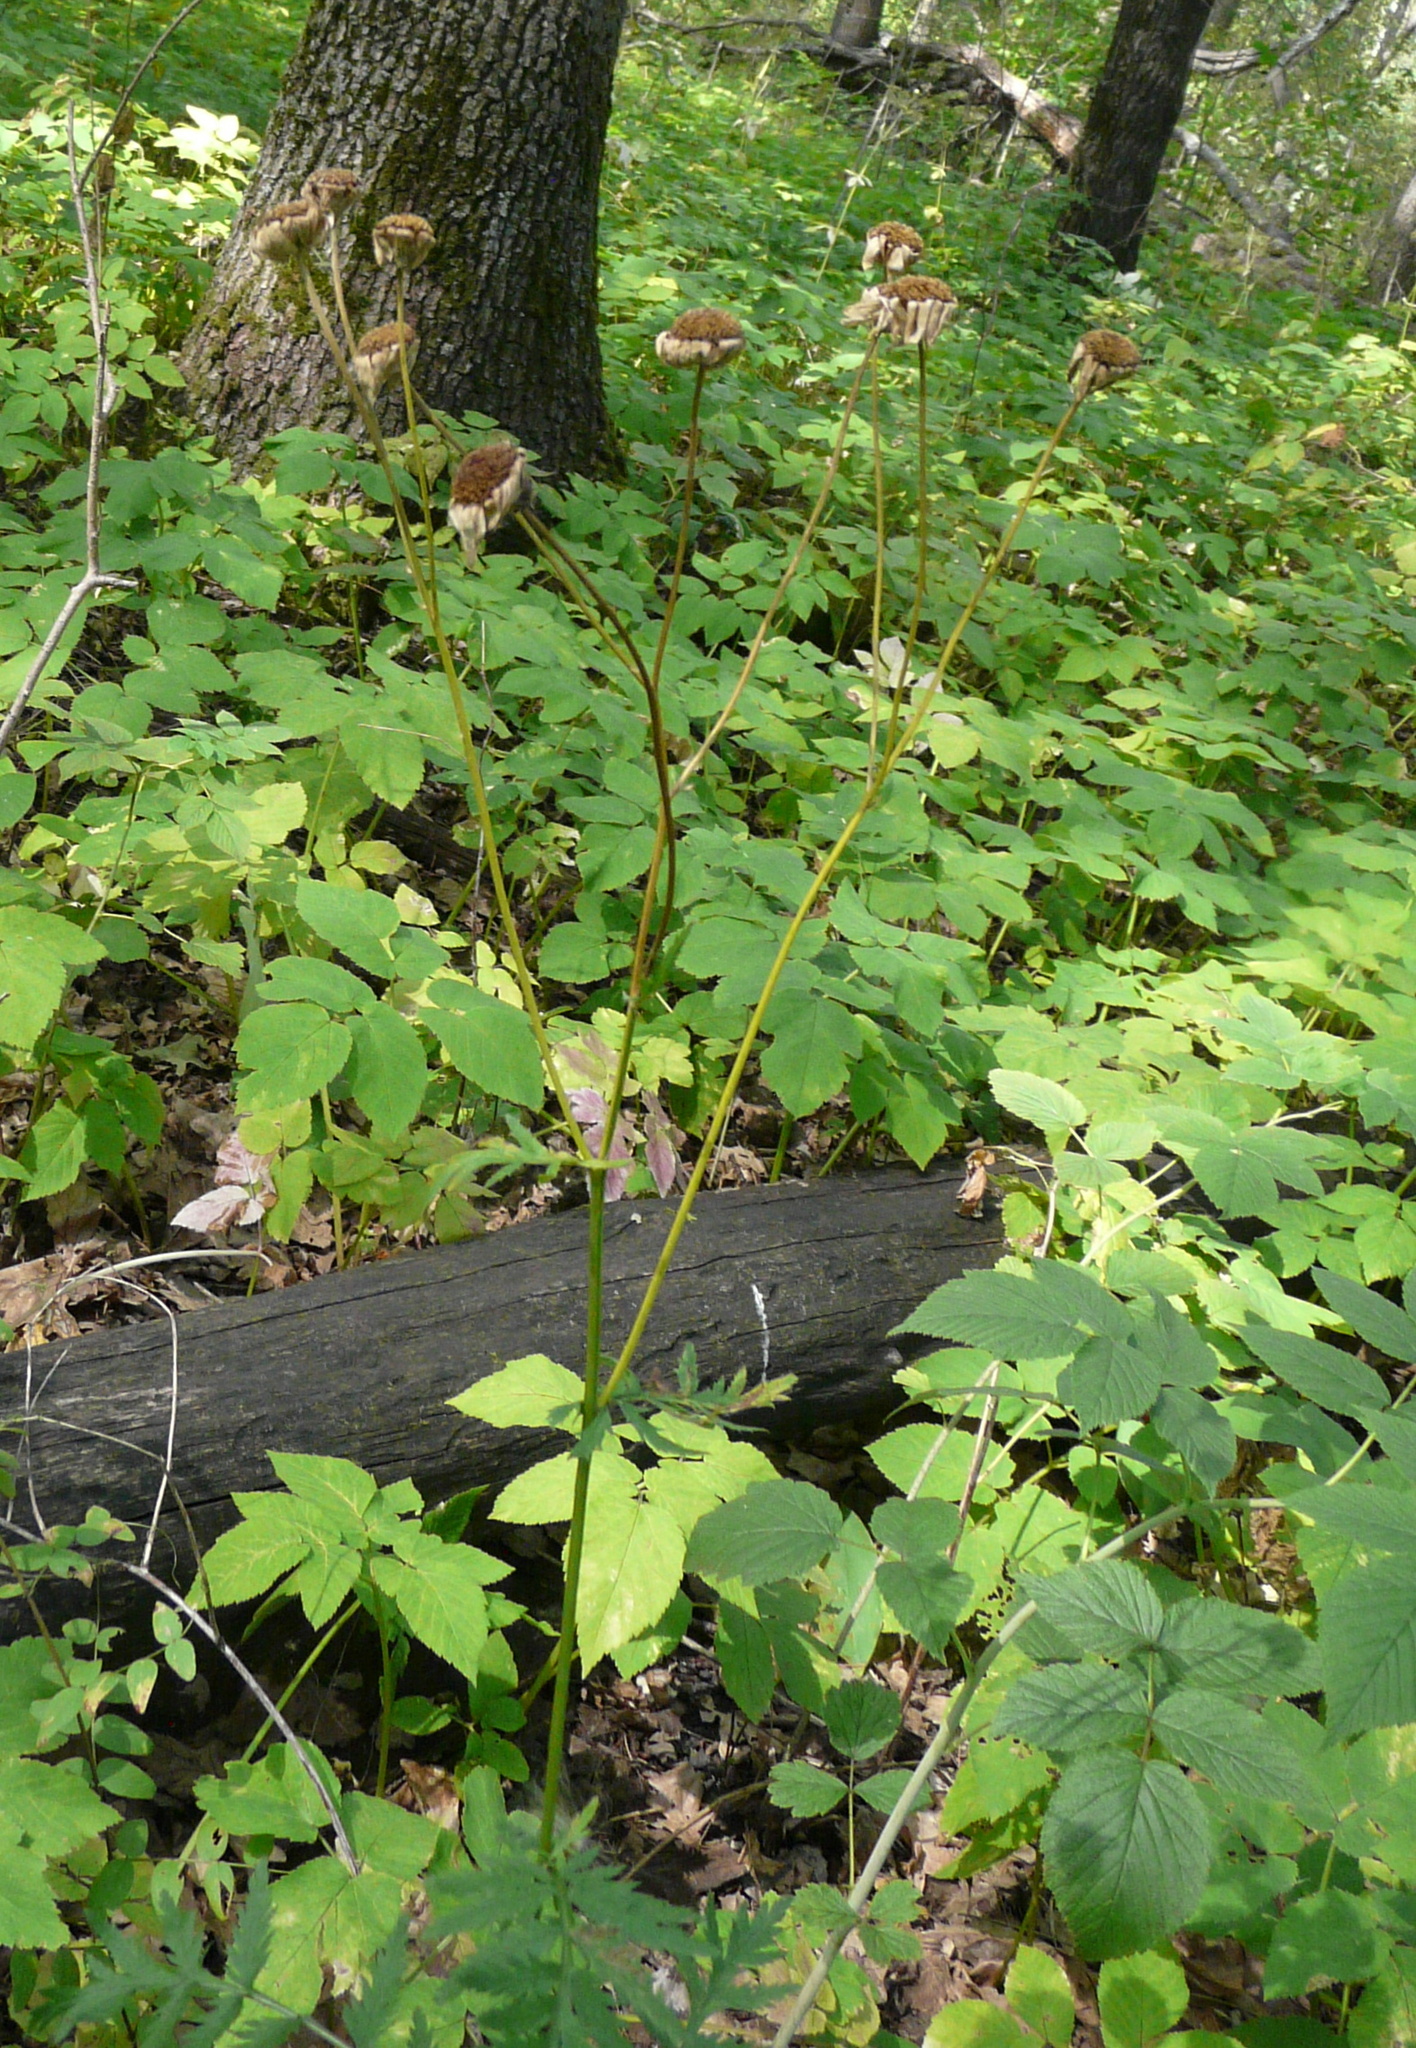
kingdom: Plantae
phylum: Tracheophyta
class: Magnoliopsida
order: Asterales
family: Asteraceae
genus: Tanacetum
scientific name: Tanacetum corymbosum
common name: Scentless feverfew
